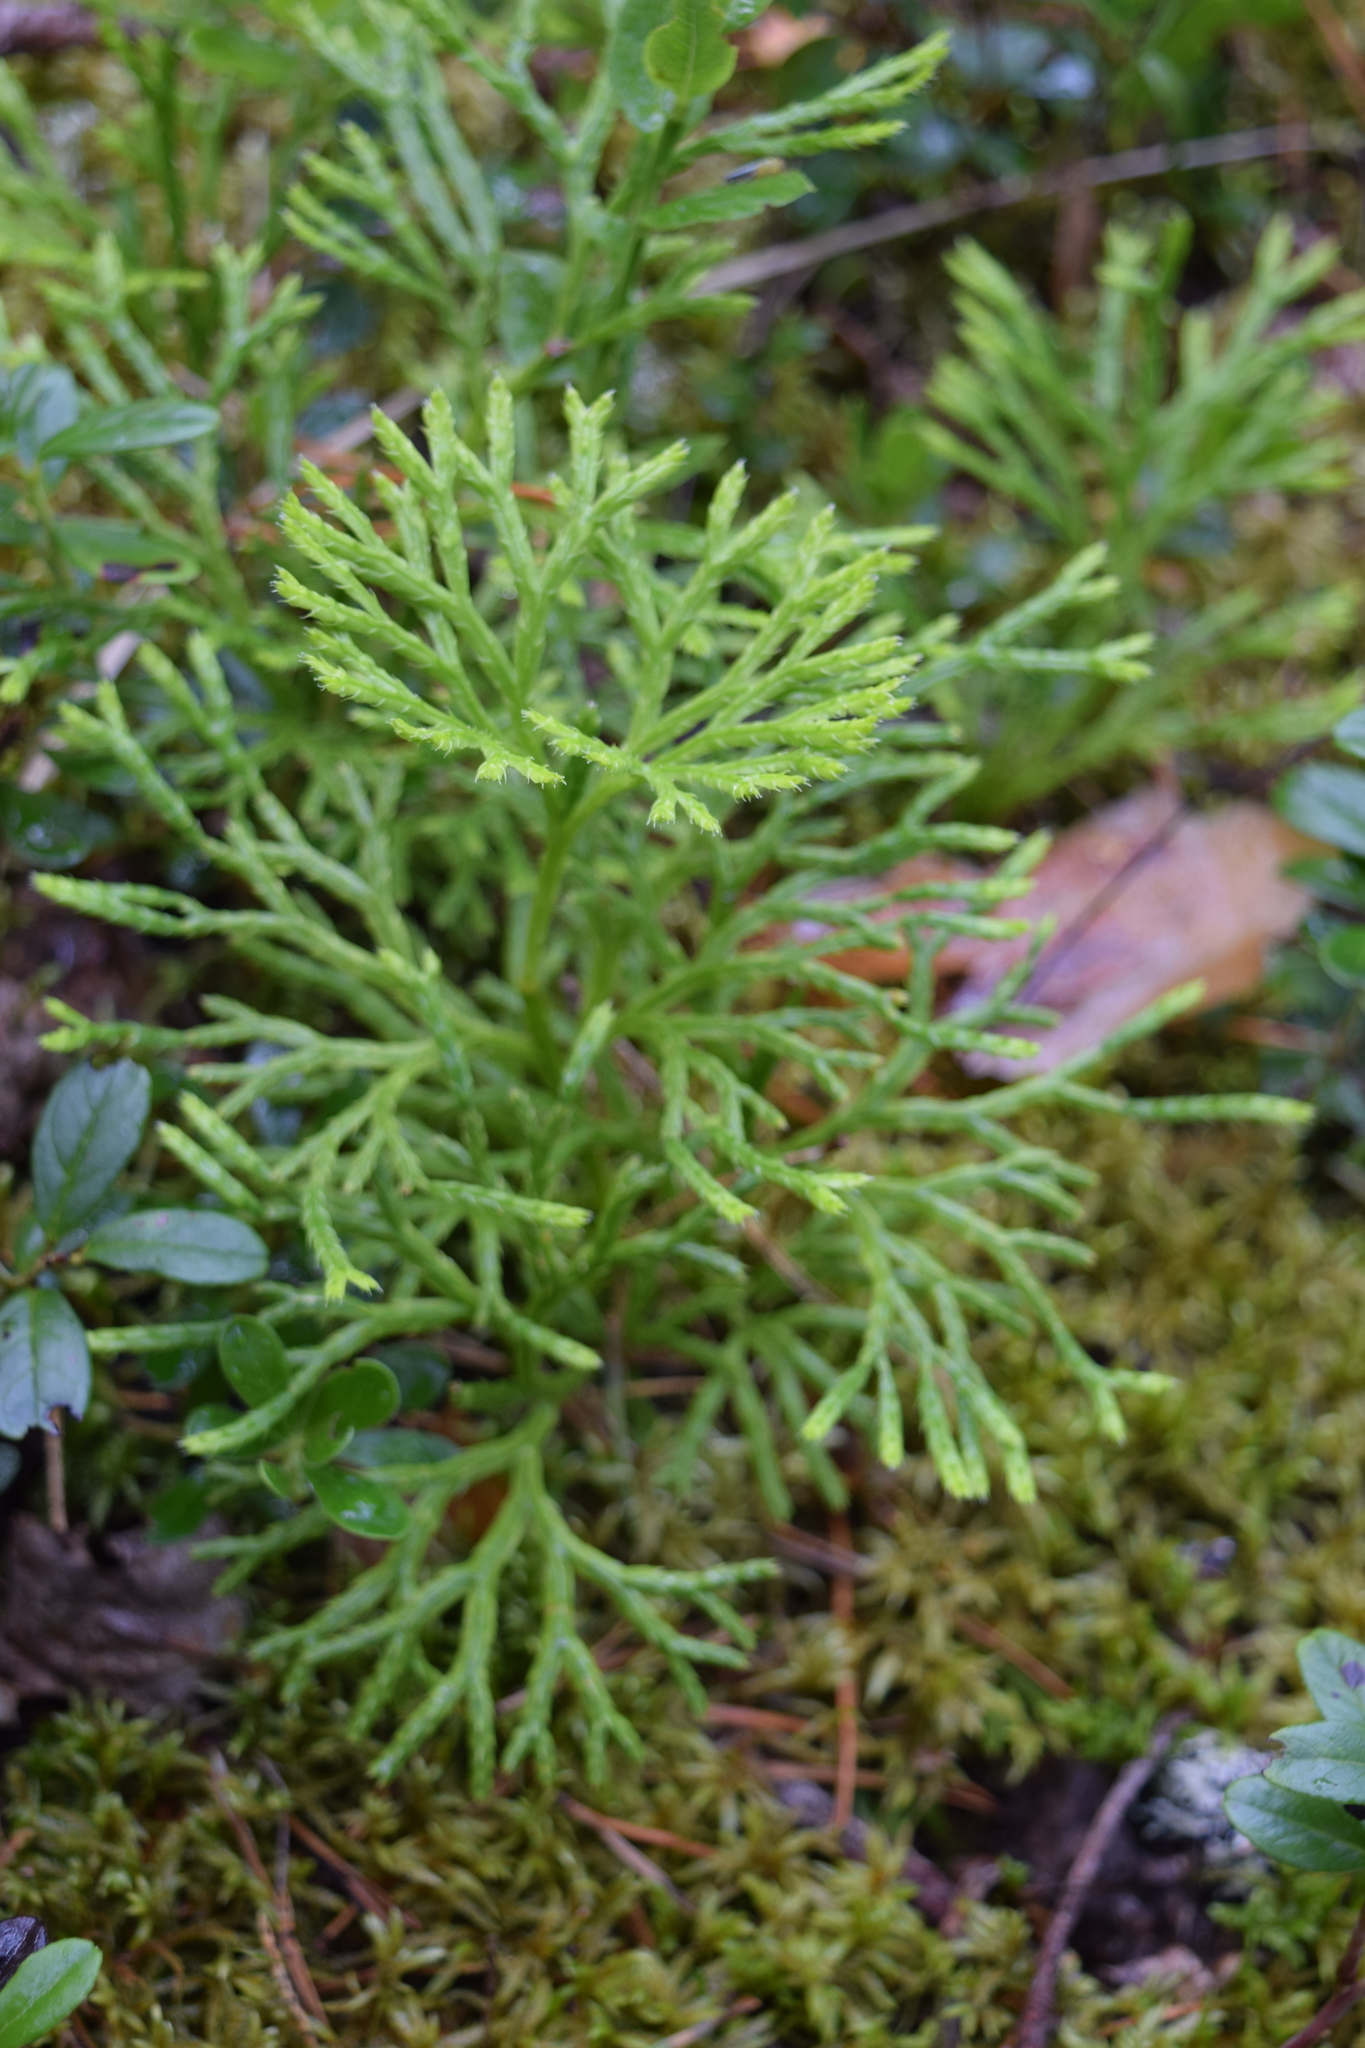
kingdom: Plantae
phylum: Tracheophyta
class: Lycopodiopsida
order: Lycopodiales
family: Lycopodiaceae
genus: Diphasiastrum
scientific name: Diphasiastrum complanatum
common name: Northern running-pine
